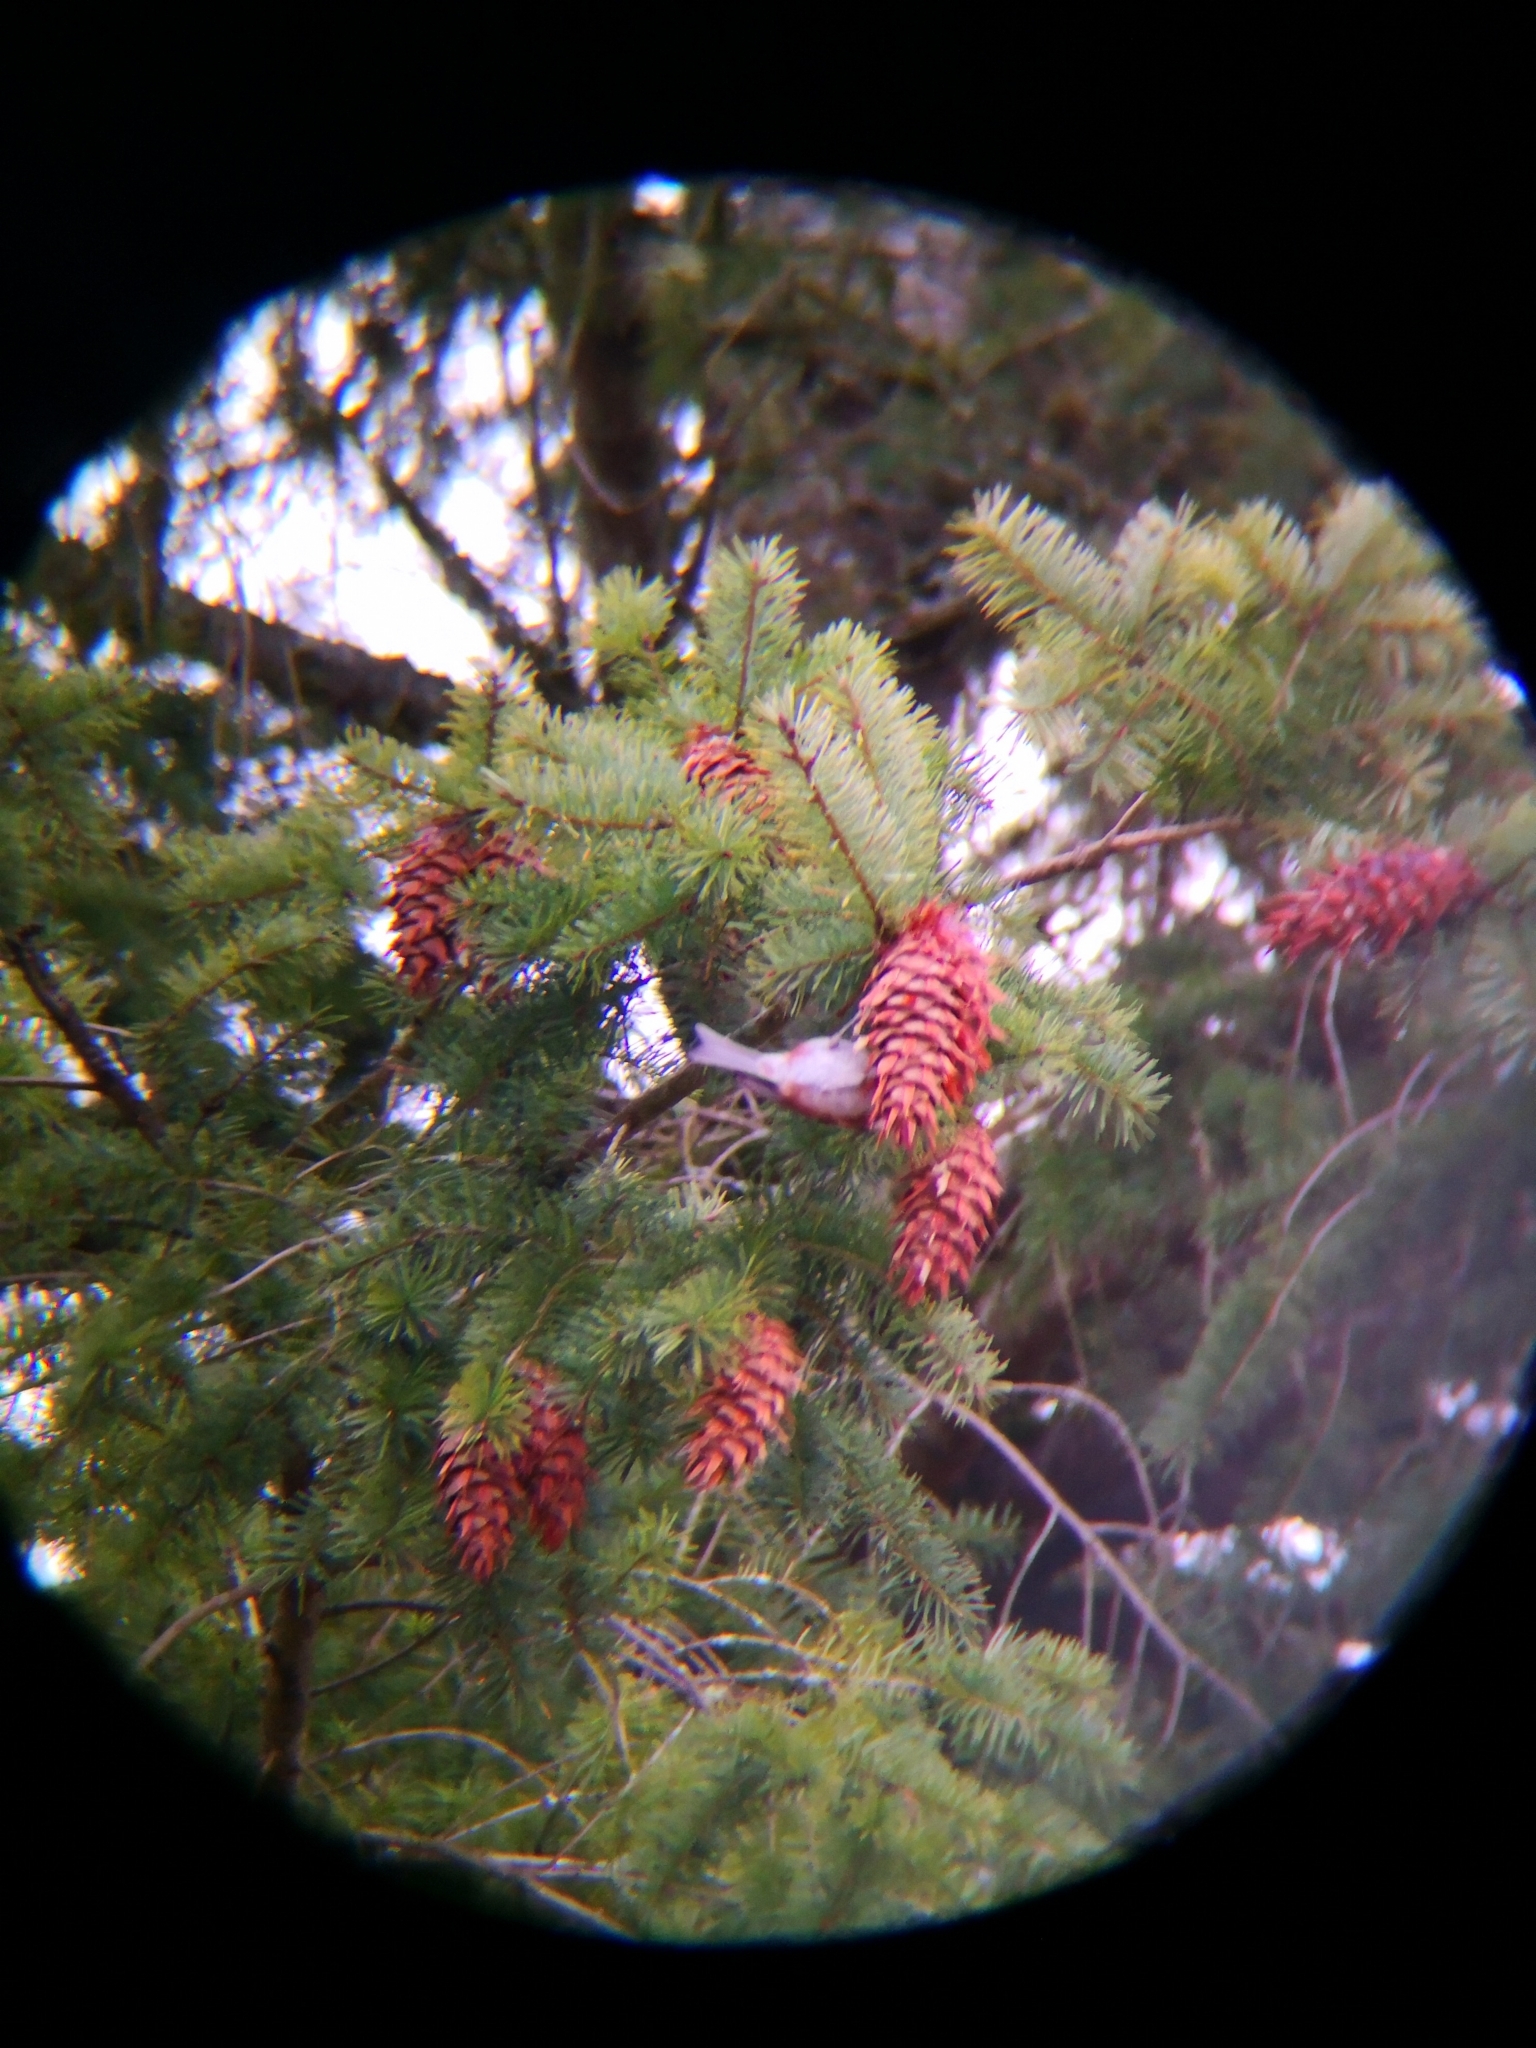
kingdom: Animalia
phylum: Chordata
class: Aves
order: Passeriformes
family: Paridae
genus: Poecile
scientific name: Poecile rufescens
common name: Chestnut-backed chickadee
